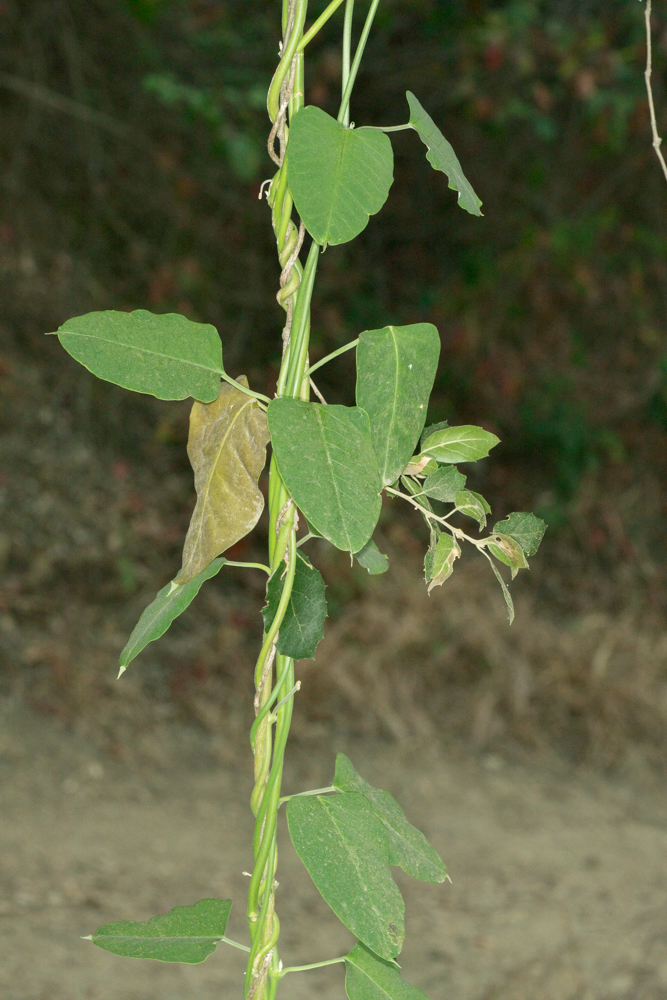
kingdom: Plantae
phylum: Tracheophyta
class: Magnoliopsida
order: Gentianales
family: Apocynaceae
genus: Araujia
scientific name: Araujia sericifera
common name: White bladderflower
